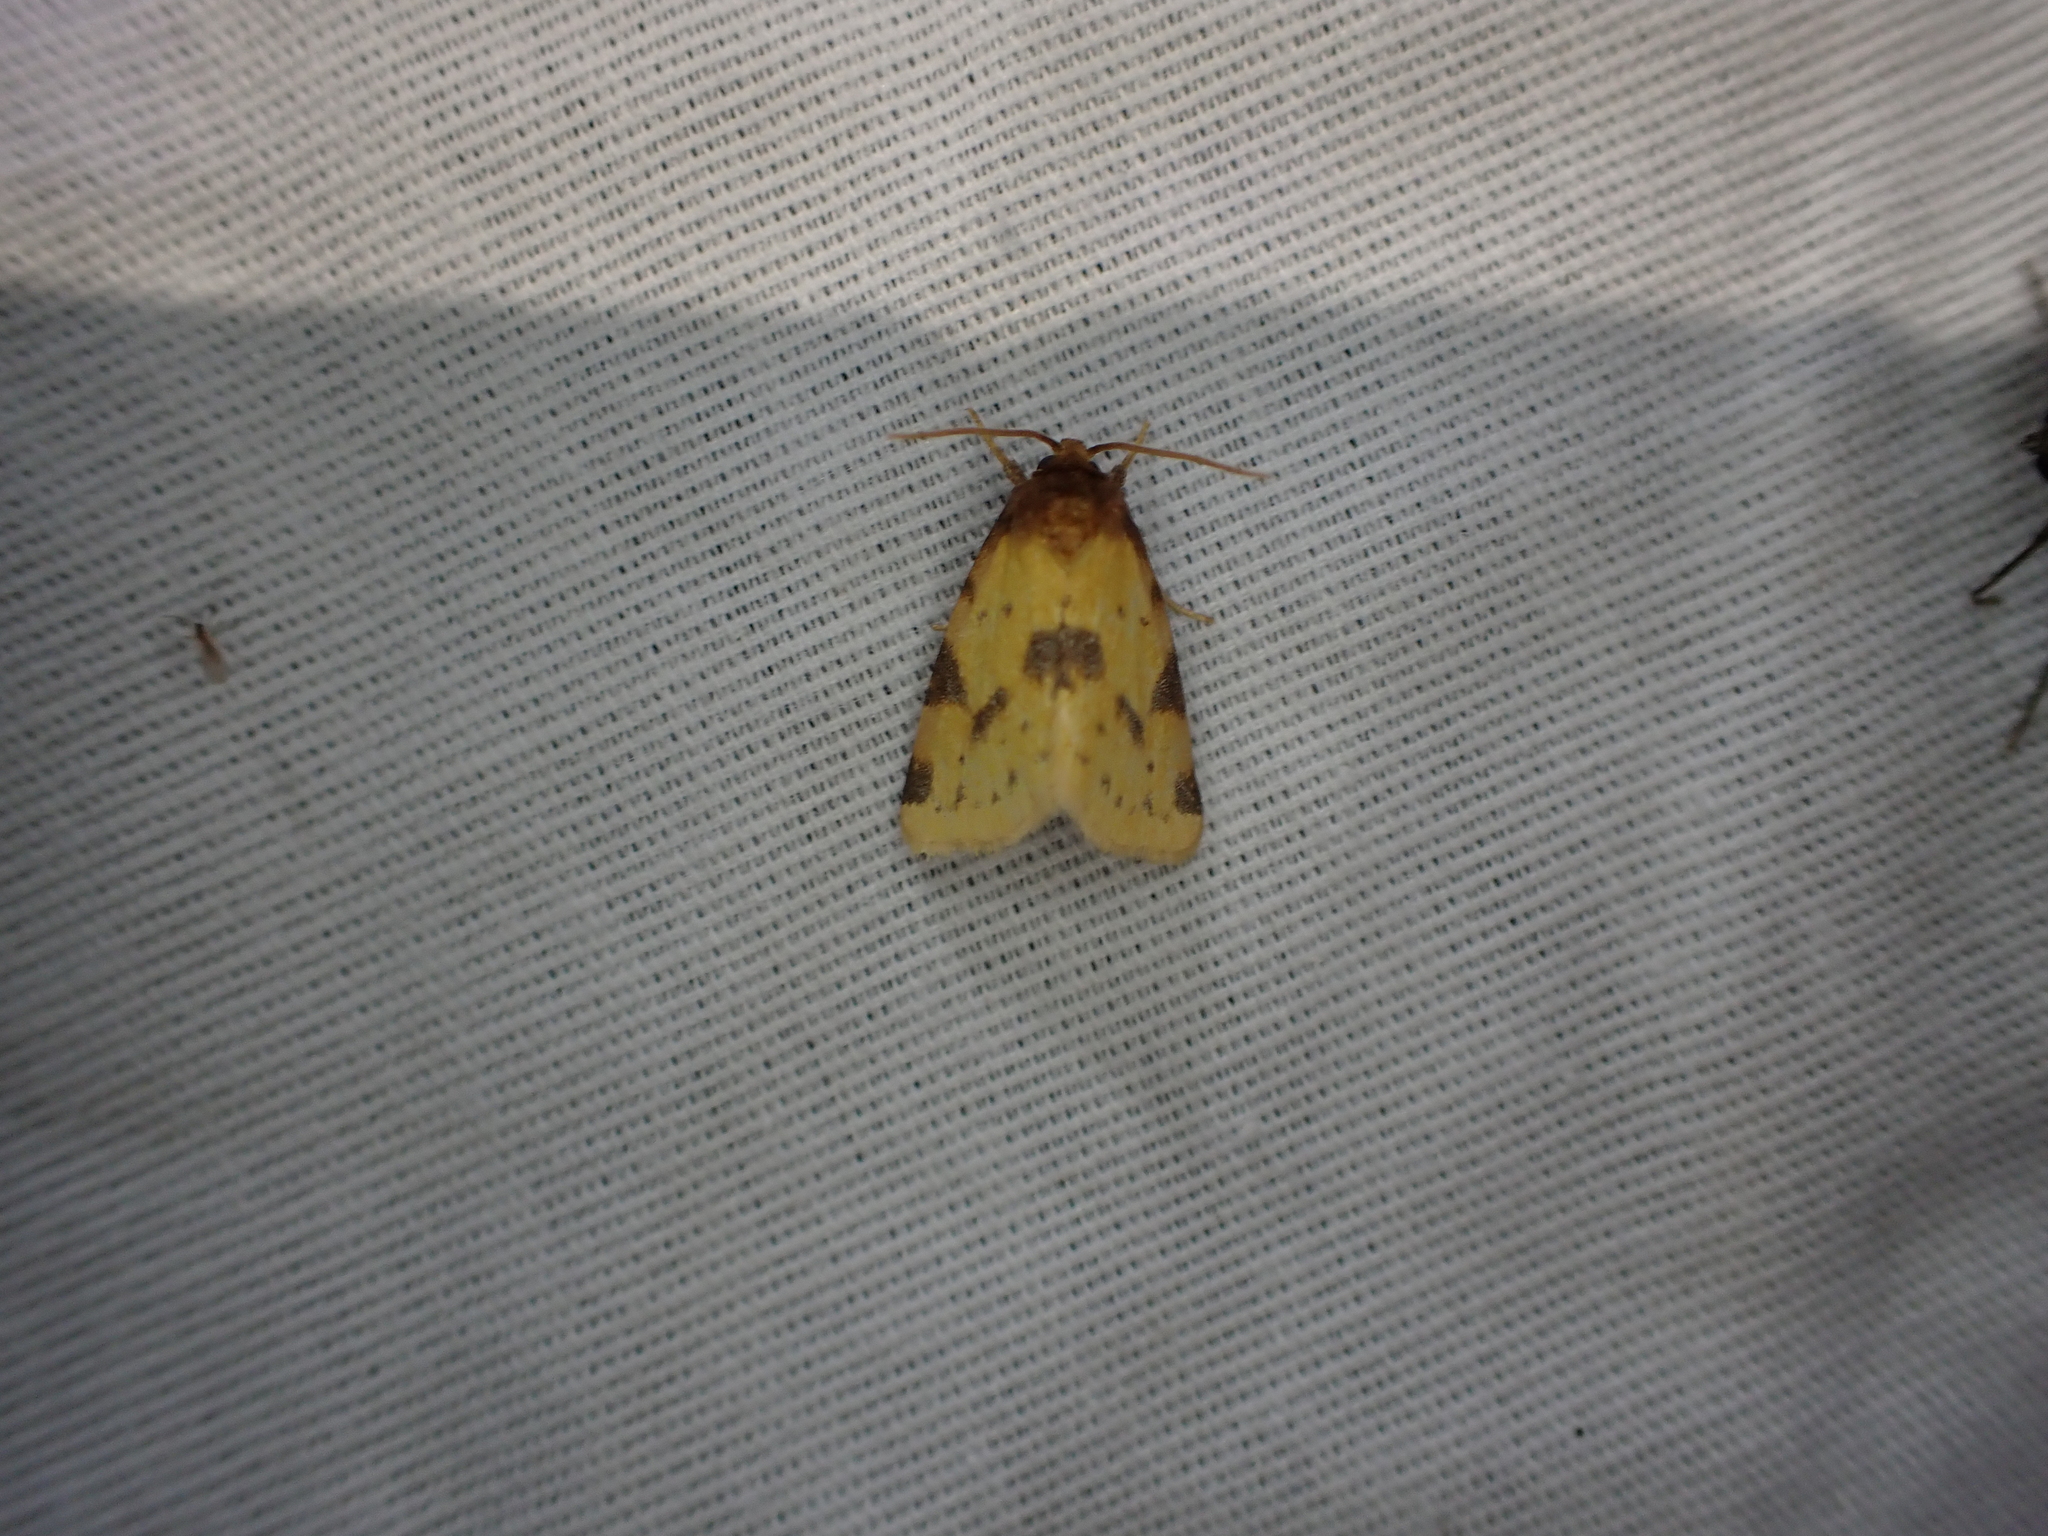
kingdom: Animalia
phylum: Arthropoda
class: Insecta
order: Lepidoptera
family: Noctuidae
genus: Azenia
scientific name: Azenia obtusa
